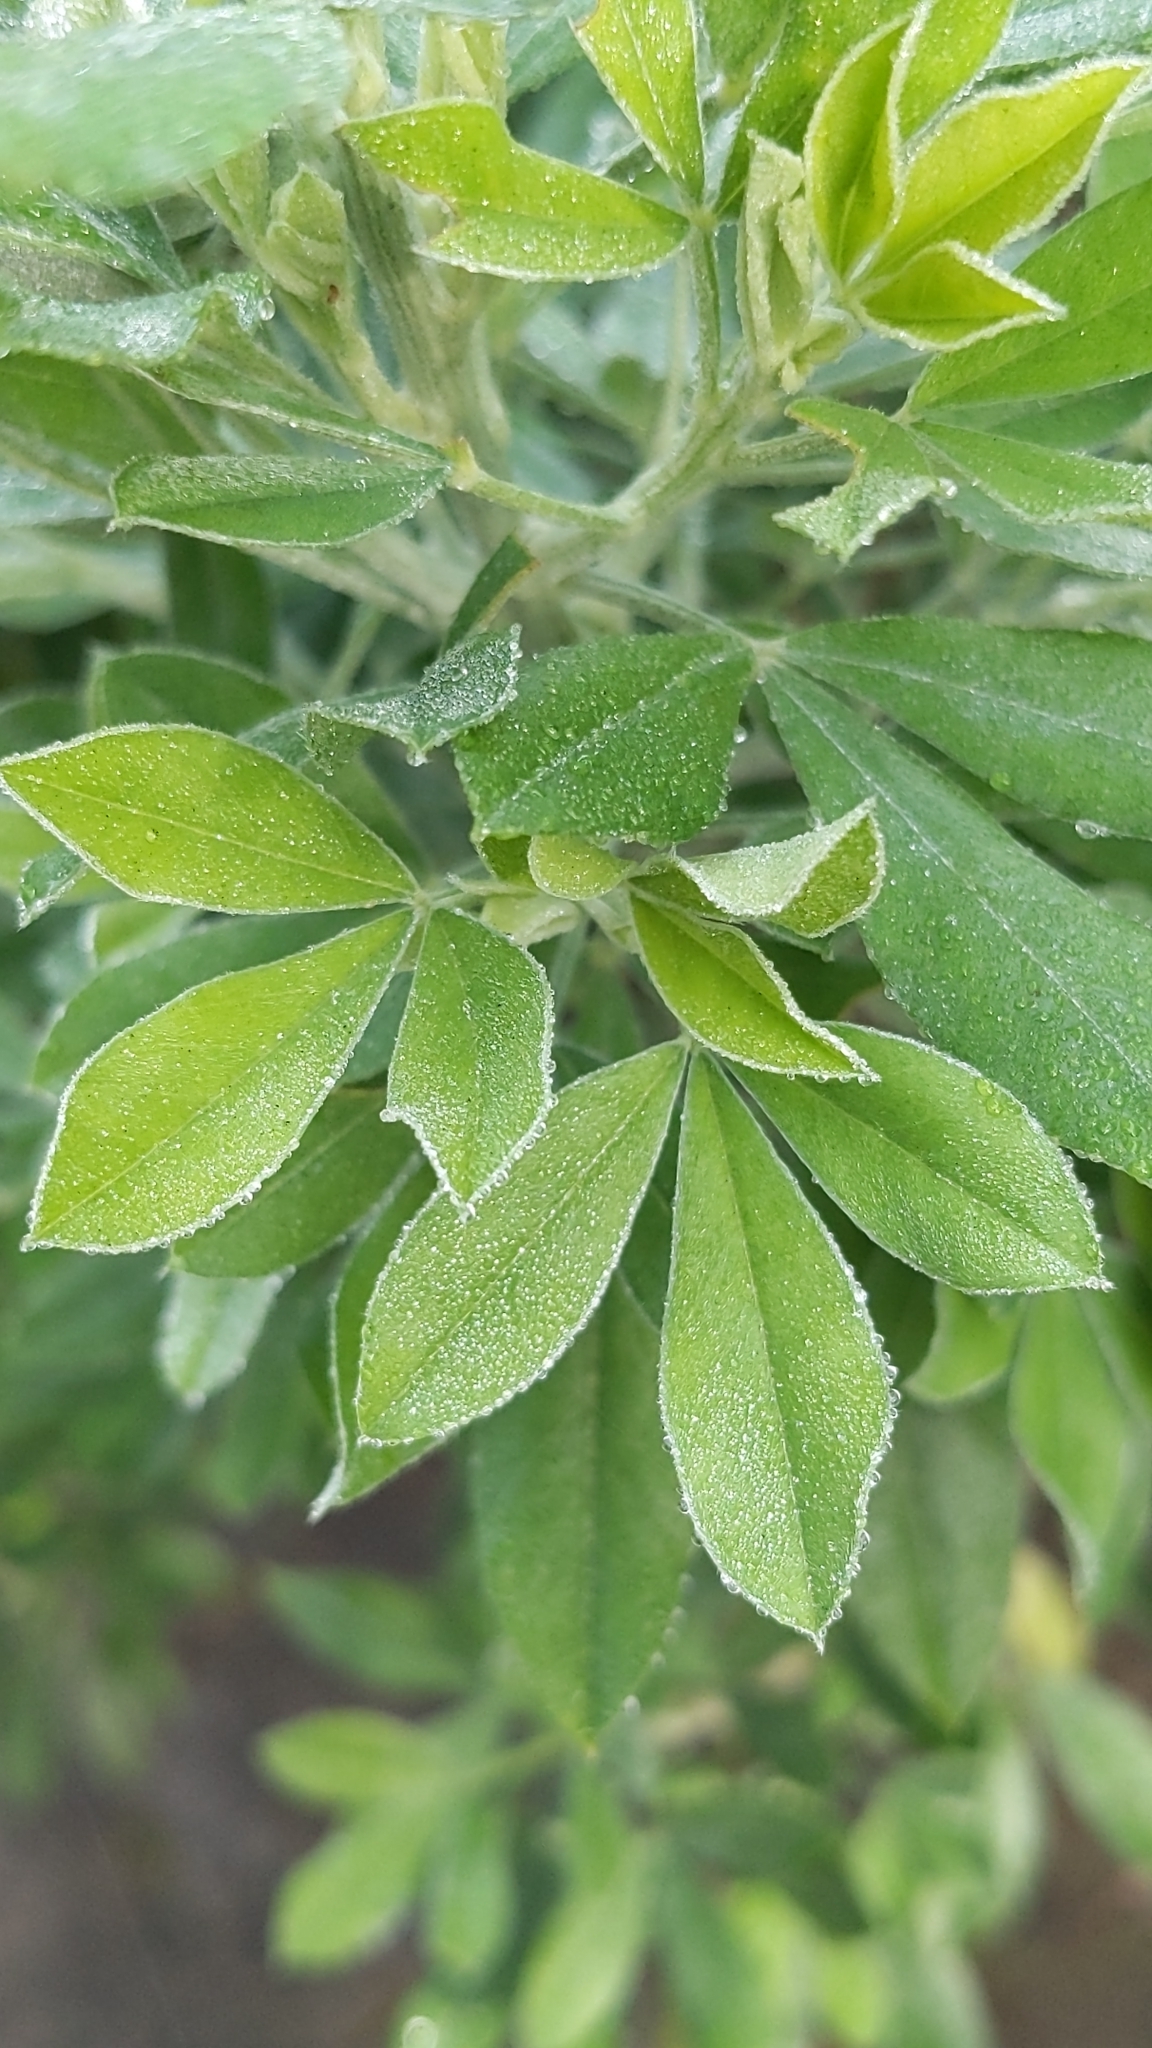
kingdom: Plantae
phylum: Tracheophyta
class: Magnoliopsida
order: Fabales
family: Fabaceae
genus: Genista
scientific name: Genista stenopetala
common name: Leafy broom
